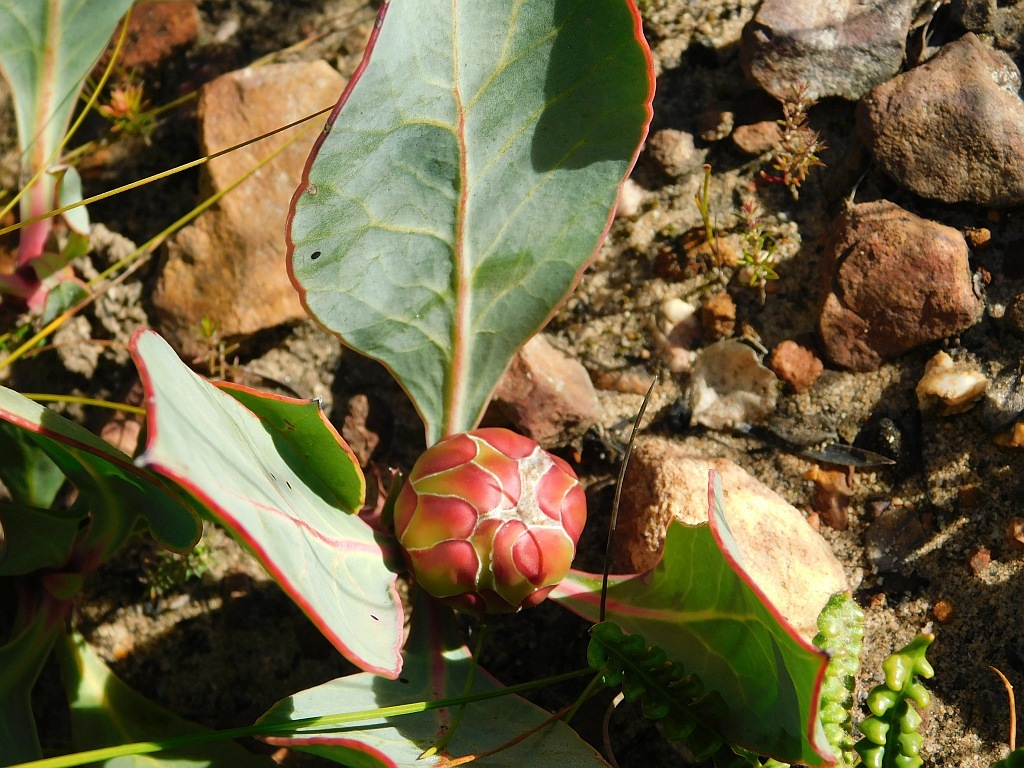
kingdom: Plantae
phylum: Tracheophyta
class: Magnoliopsida
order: Proteales
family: Proteaceae
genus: Protea
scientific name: Protea acaulos
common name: Common ground sugarbush
